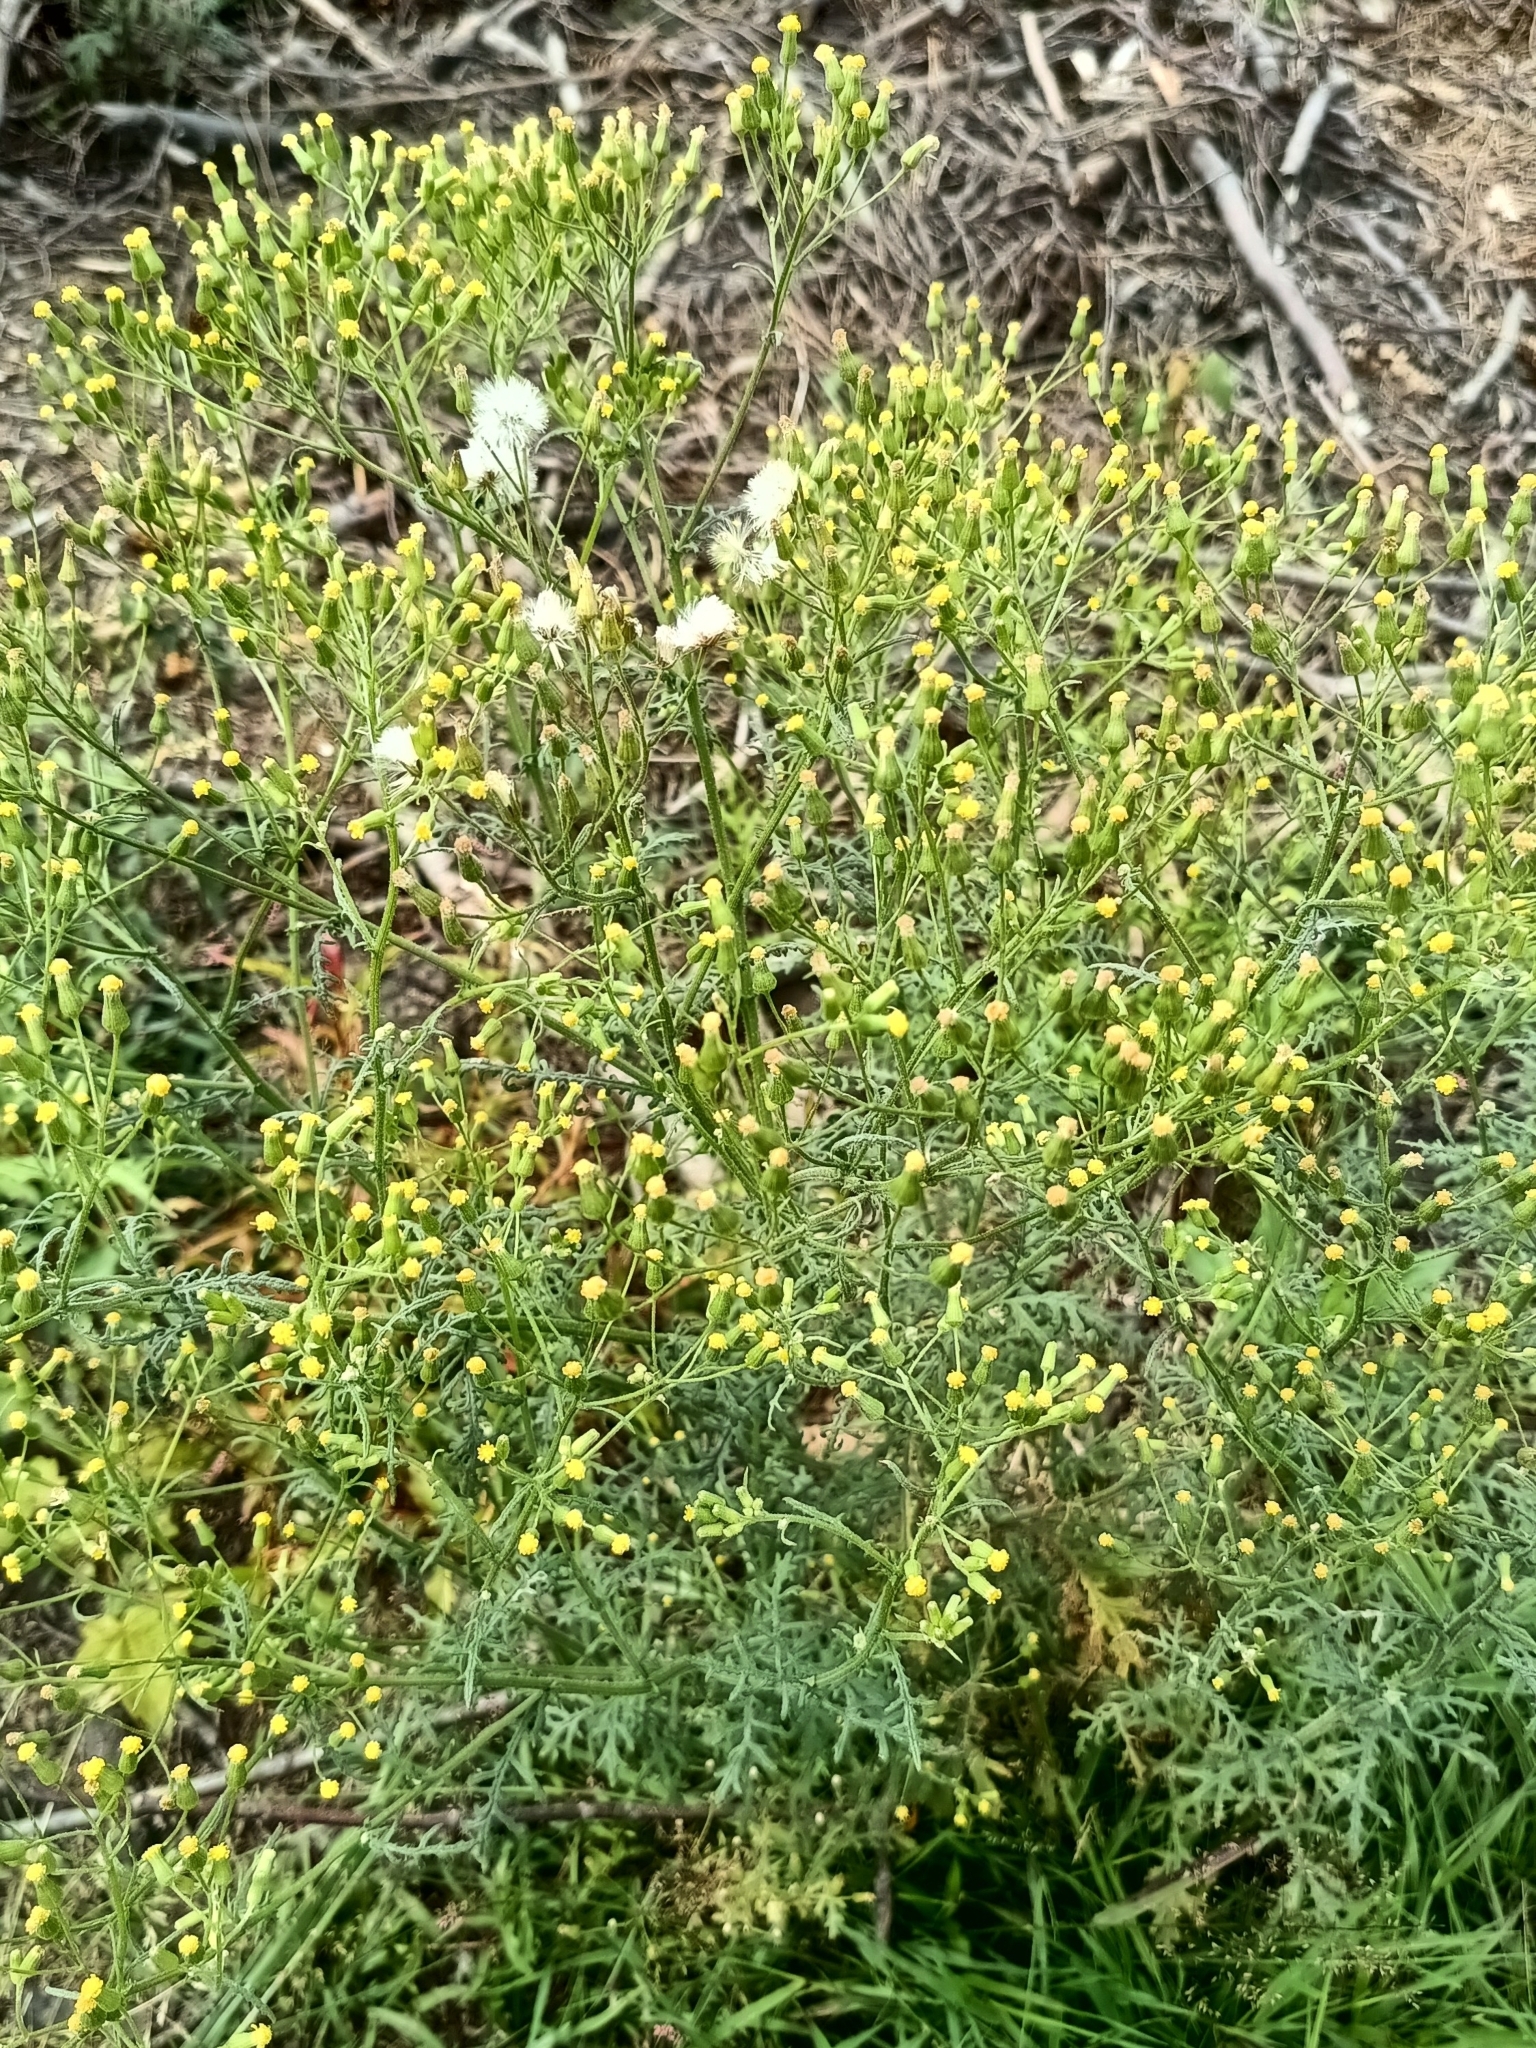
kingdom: Plantae
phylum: Tracheophyta
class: Magnoliopsida
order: Asterales
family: Asteraceae
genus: Senecio
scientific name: Senecio sylvaticus
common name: Woodland ragwort
